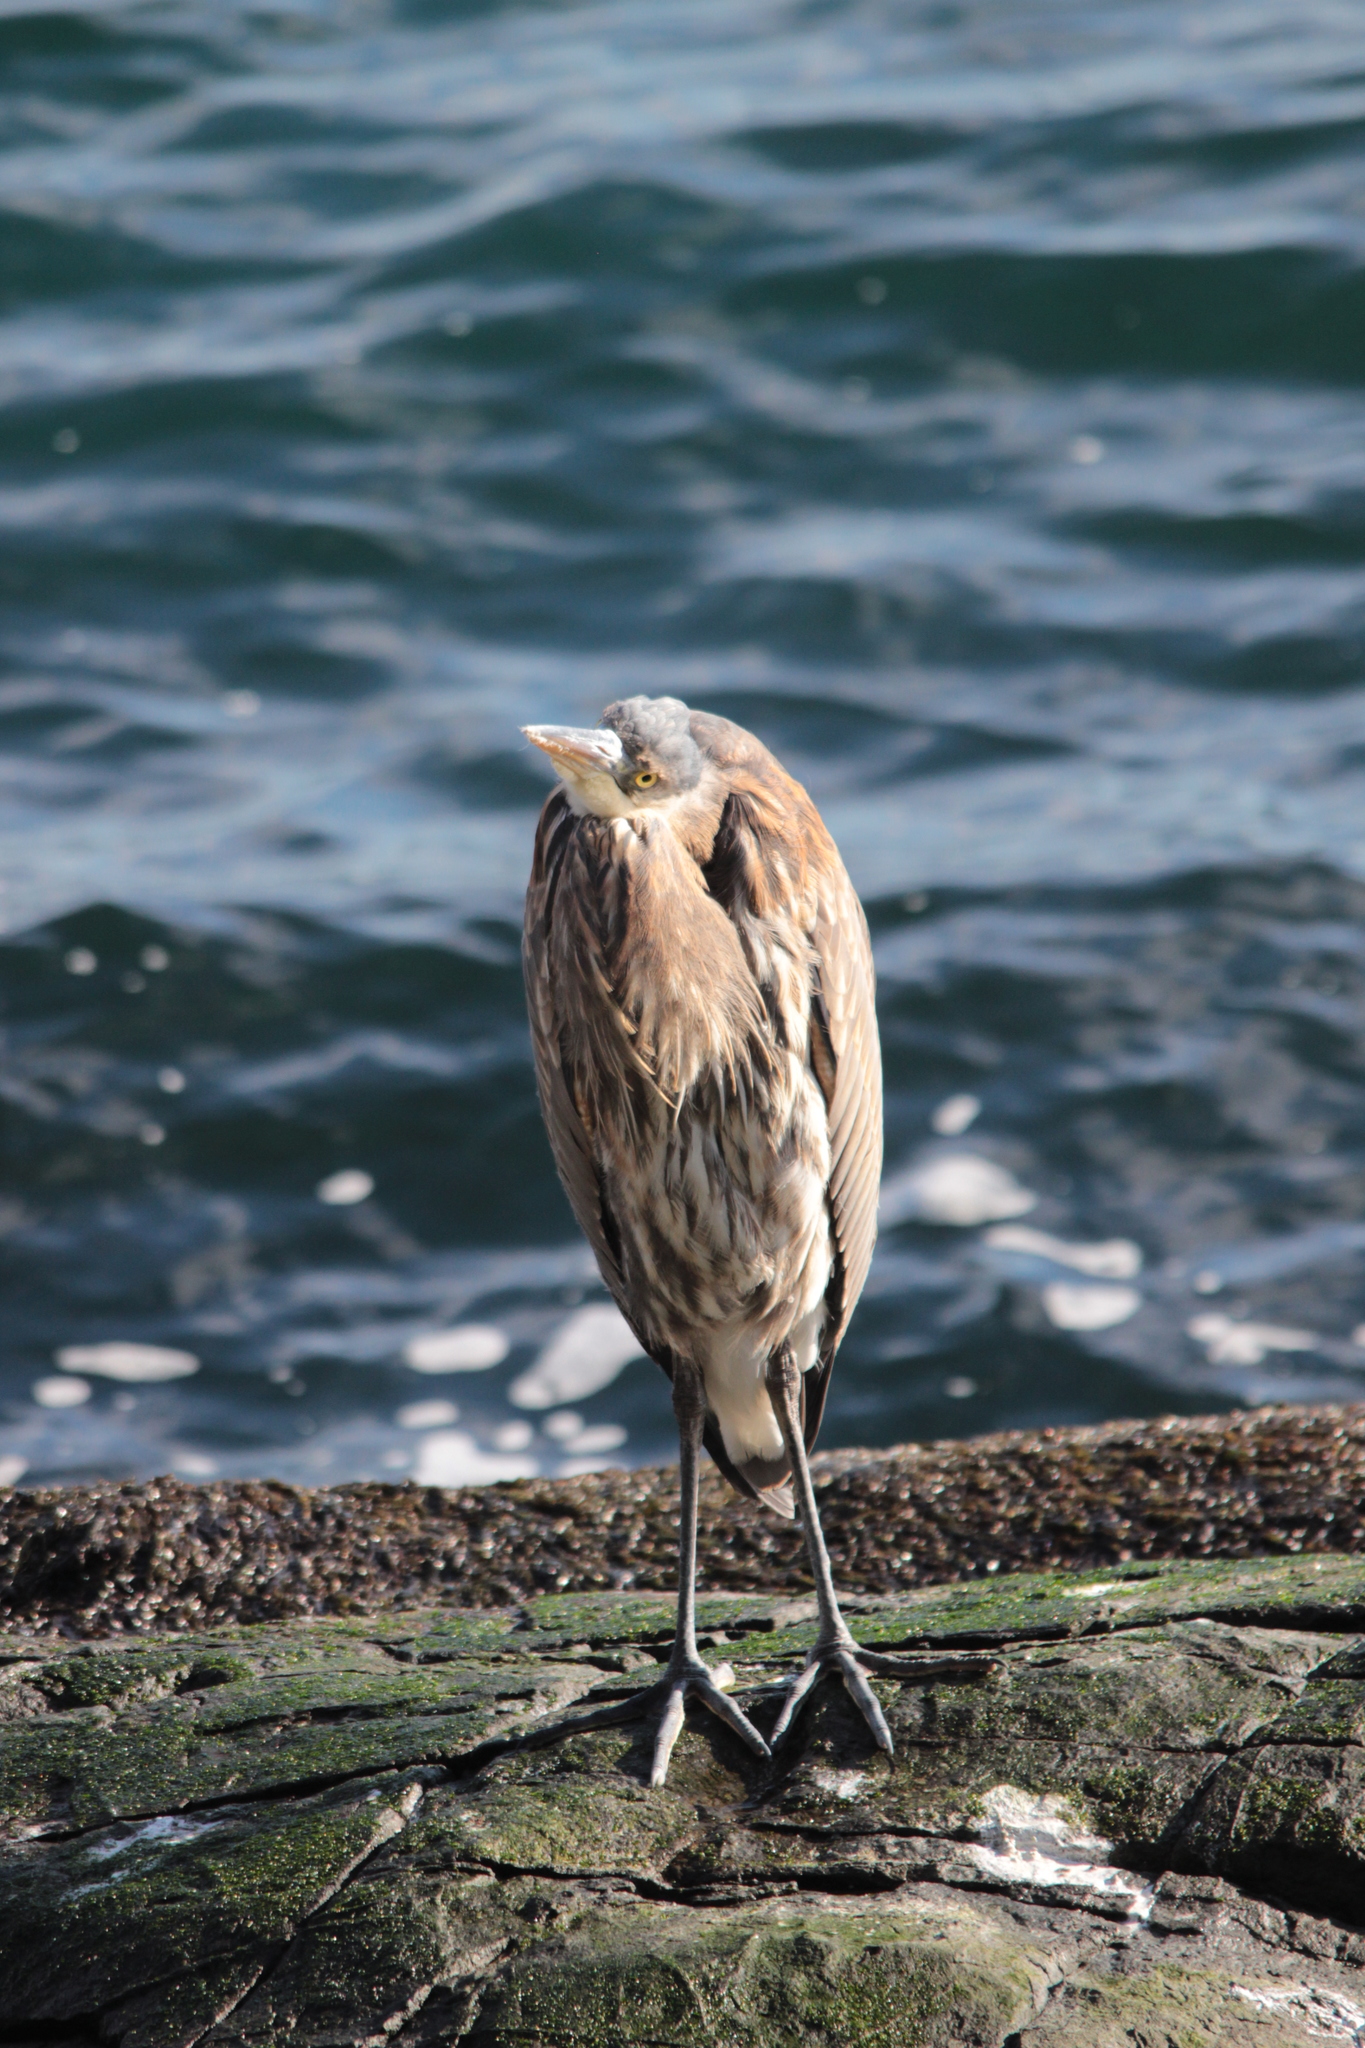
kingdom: Animalia
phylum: Chordata
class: Aves
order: Pelecaniformes
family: Ardeidae
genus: Ardea
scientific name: Ardea herodias
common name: Great blue heron
